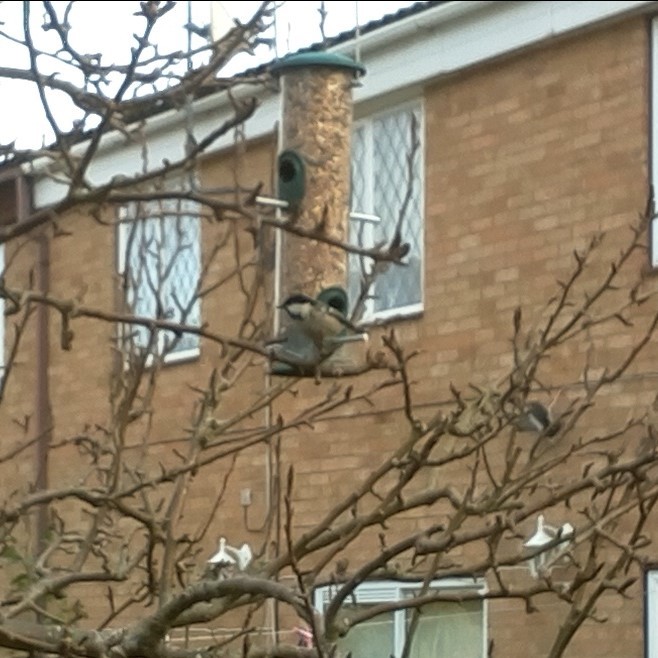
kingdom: Animalia
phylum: Chordata
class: Aves
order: Passeriformes
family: Paridae
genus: Periparus
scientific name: Periparus ater
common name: Coal tit
